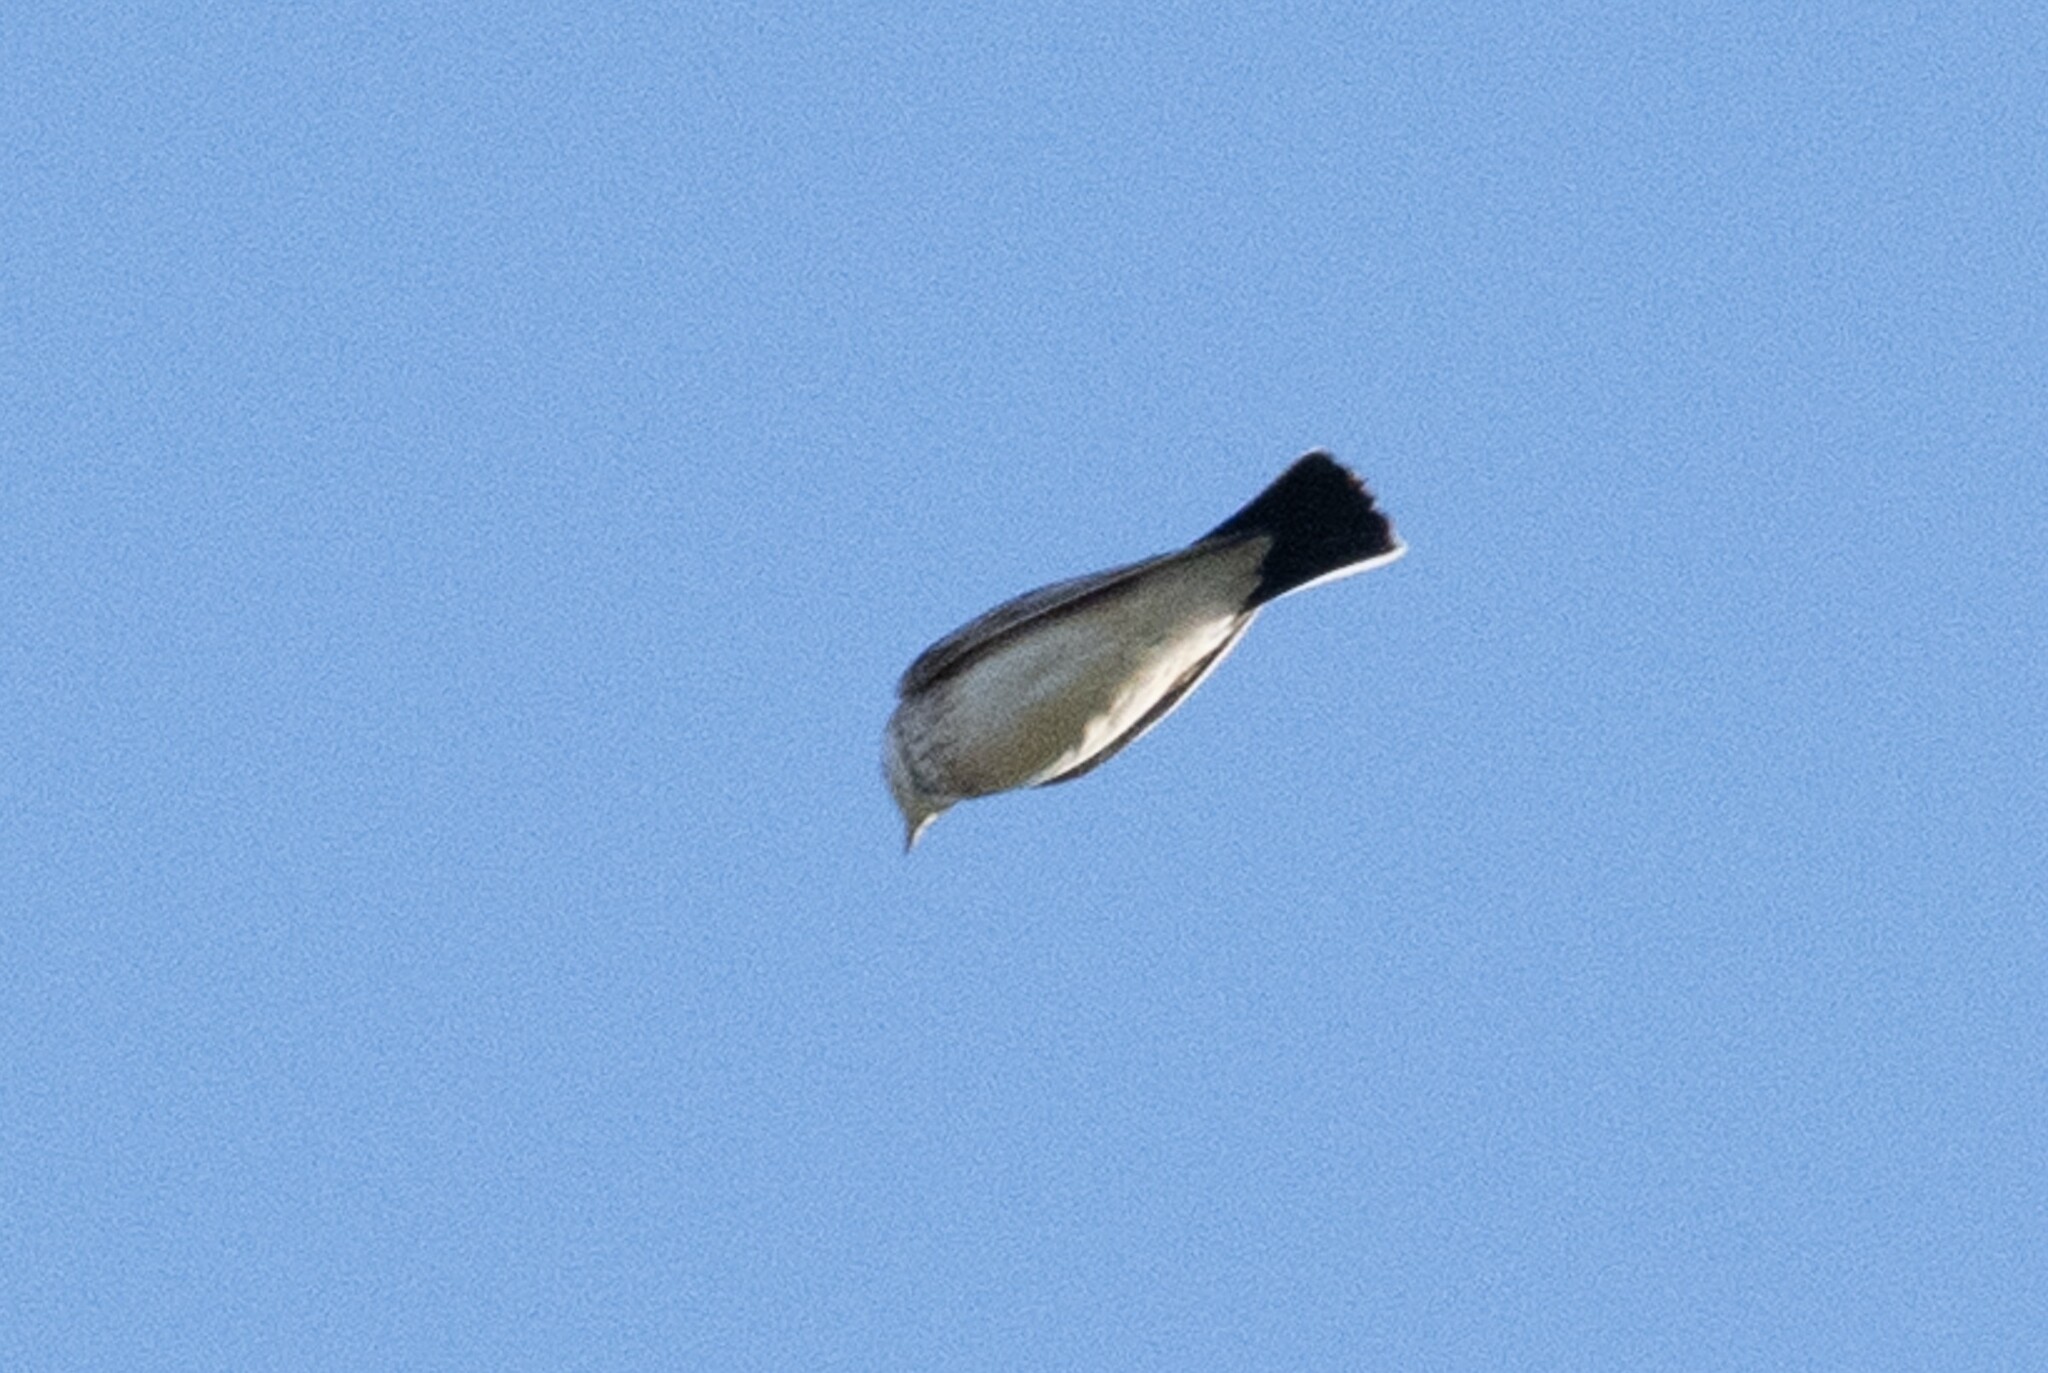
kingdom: Animalia
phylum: Chordata
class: Aves
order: Passeriformes
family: Motacillidae
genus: Anthus
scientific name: Anthus rubescens
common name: Buff-bellied pipit
